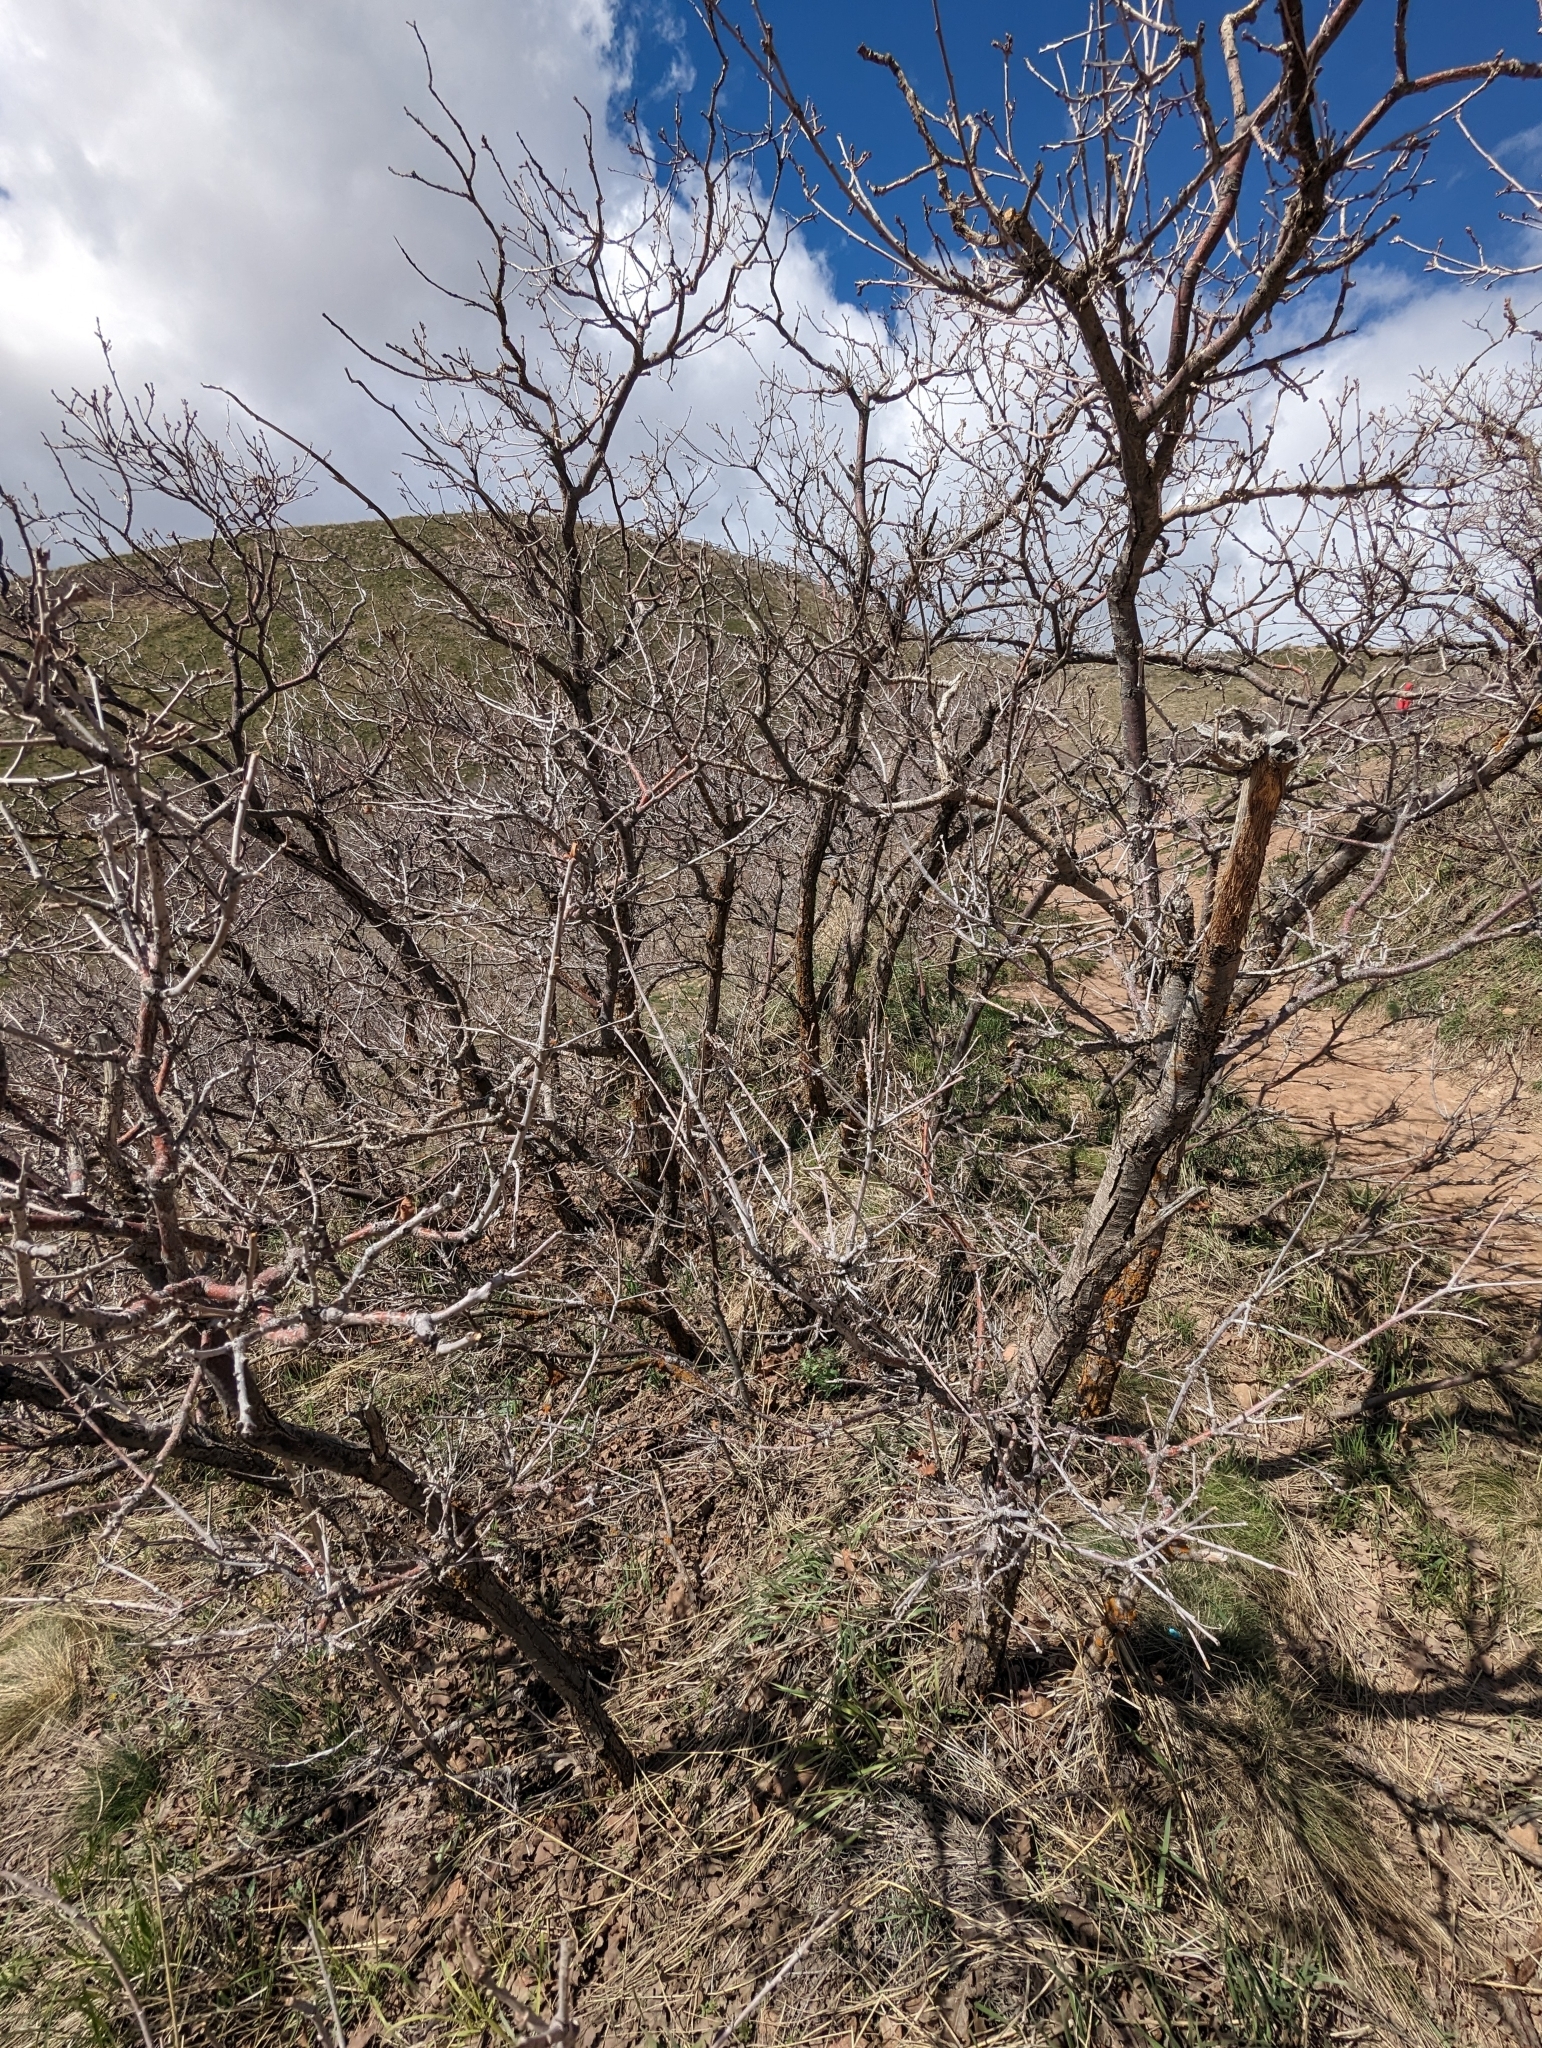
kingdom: Plantae
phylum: Tracheophyta
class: Magnoliopsida
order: Fagales
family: Fagaceae
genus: Quercus
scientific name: Quercus gambelii
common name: Gambel oak
